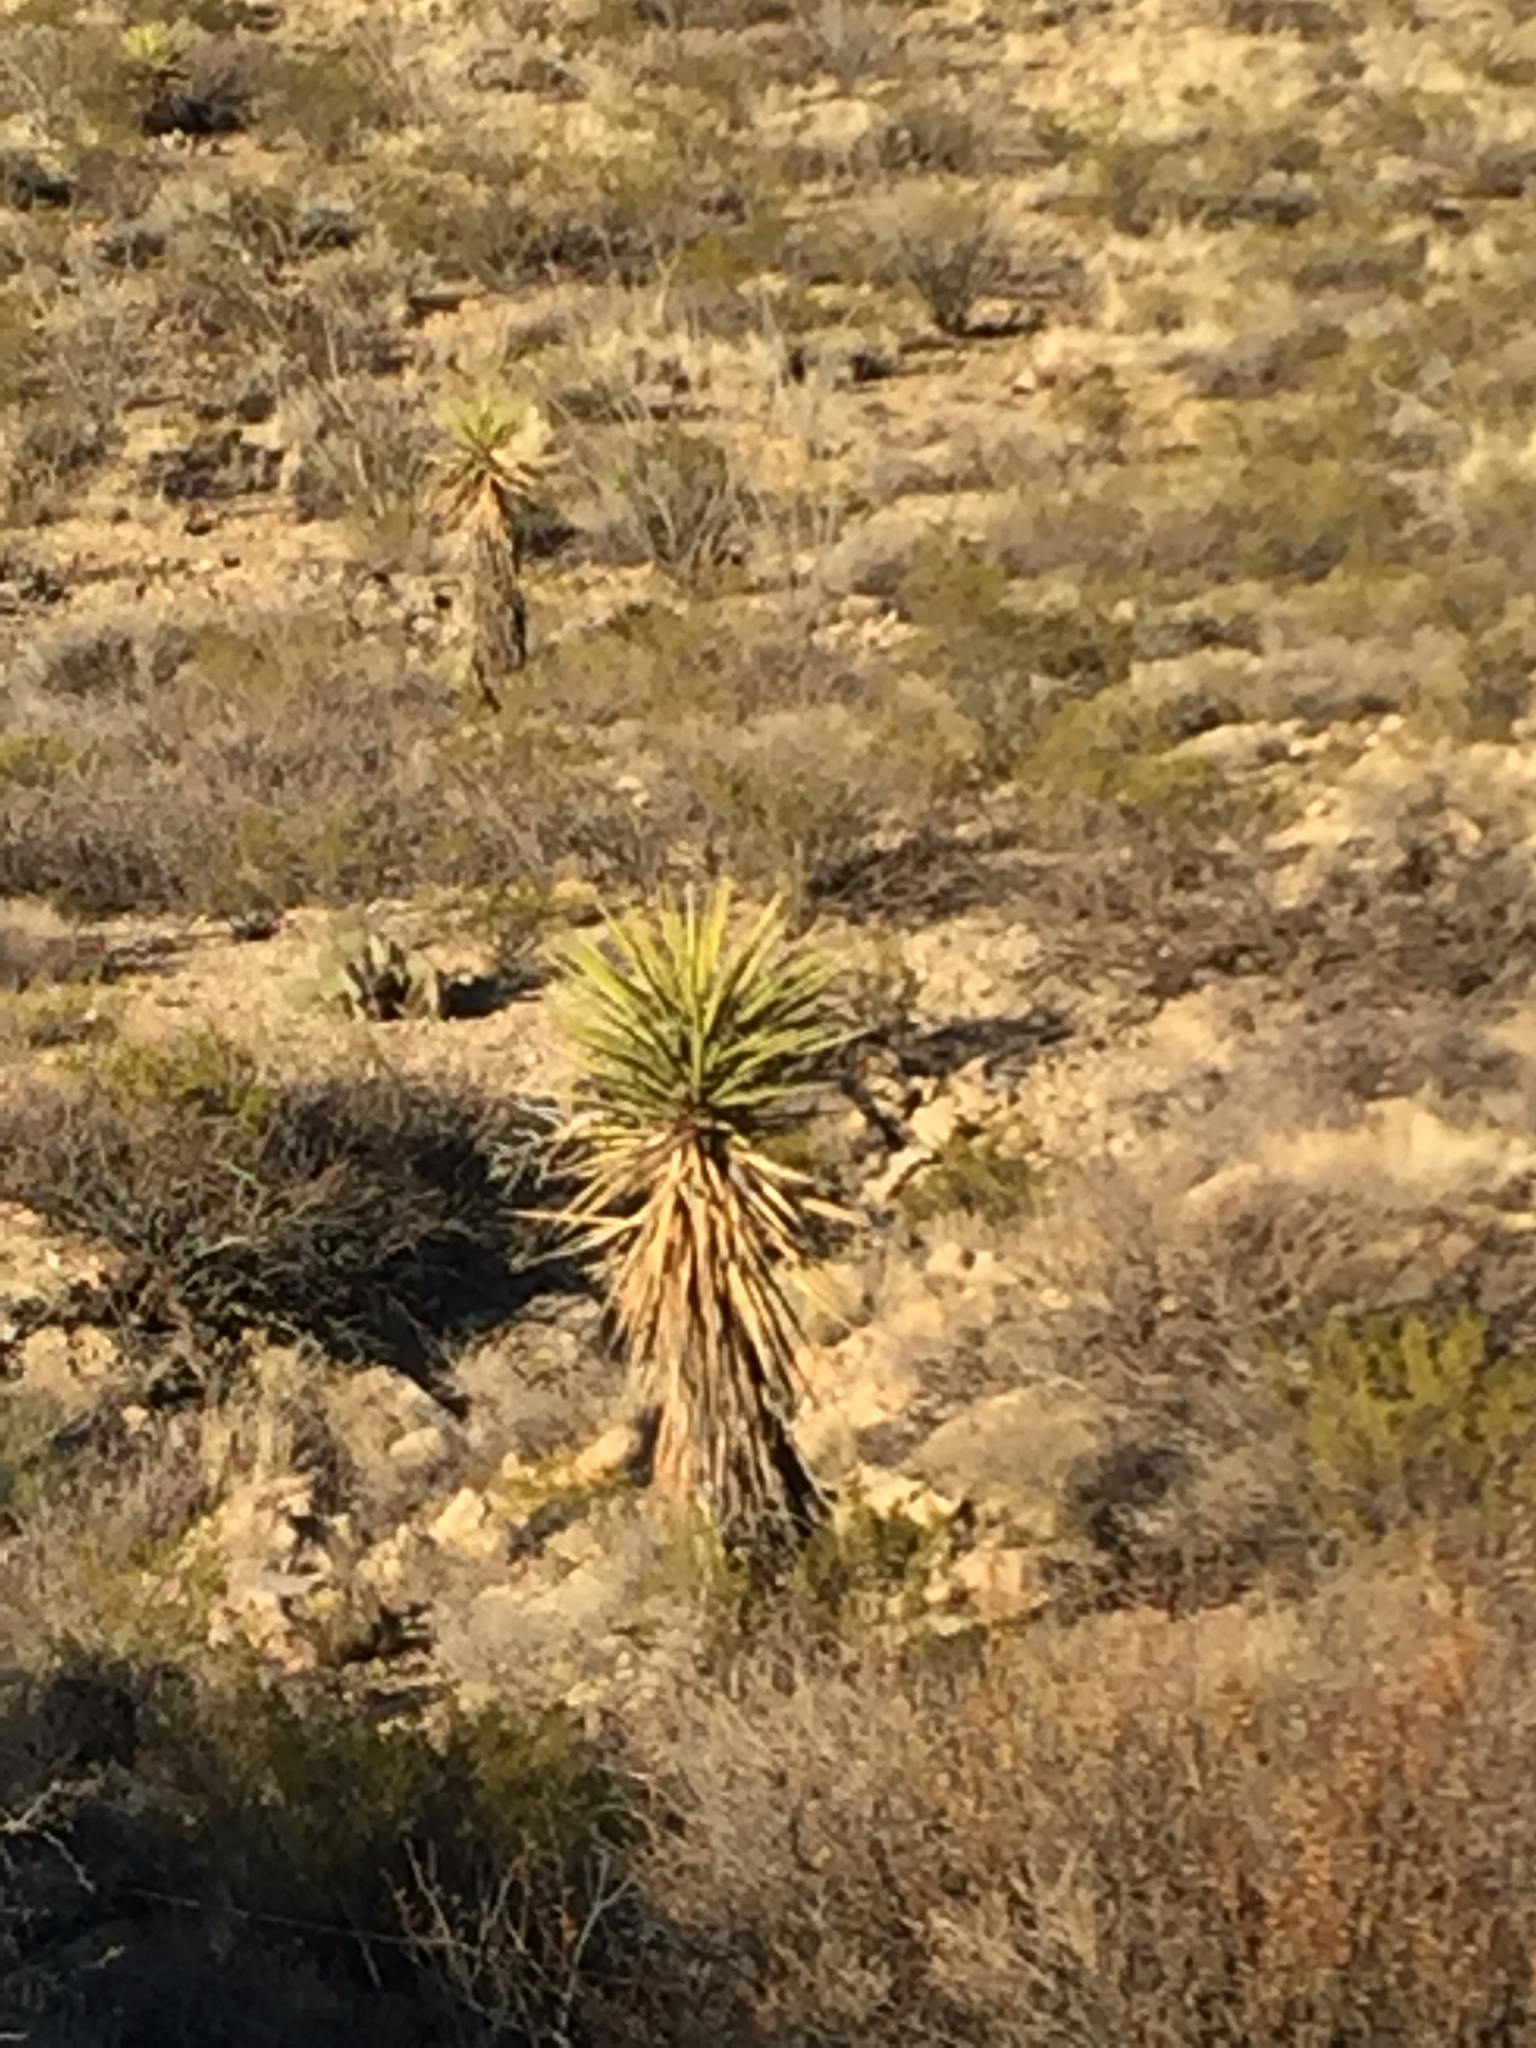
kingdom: Plantae
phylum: Tracheophyta
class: Liliopsida
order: Asparagales
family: Asparagaceae
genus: Yucca
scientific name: Yucca treculiana
